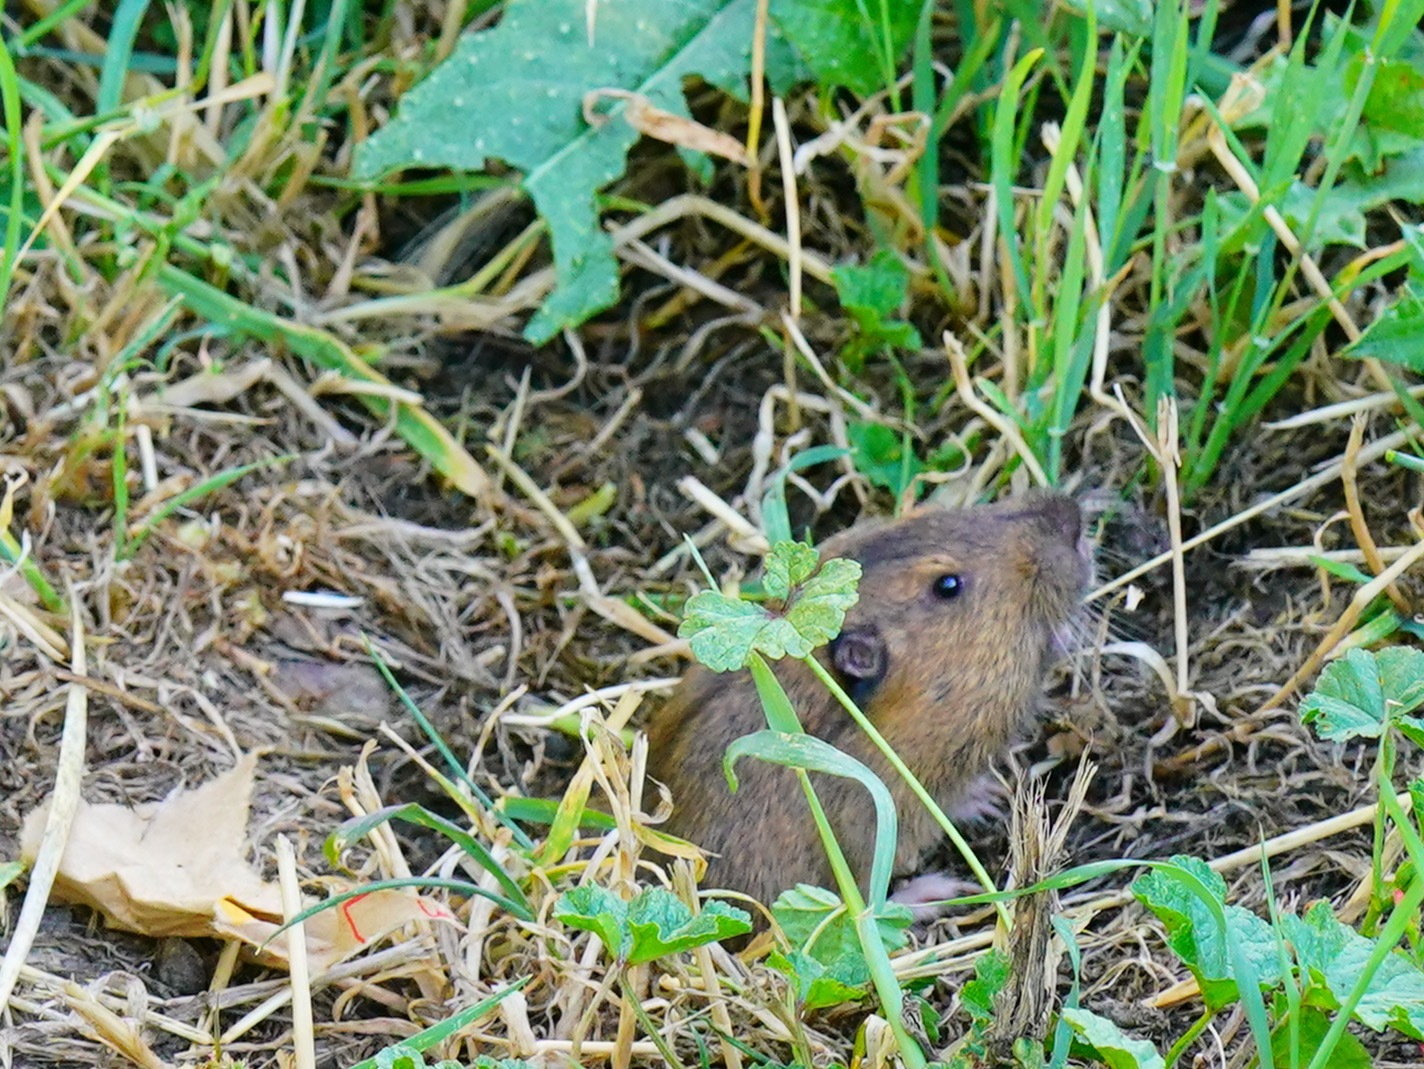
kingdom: Animalia
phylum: Chordata
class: Mammalia
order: Rodentia
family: Geomyidae
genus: Thomomys
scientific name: Thomomys bottae
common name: Botta's pocket gopher
